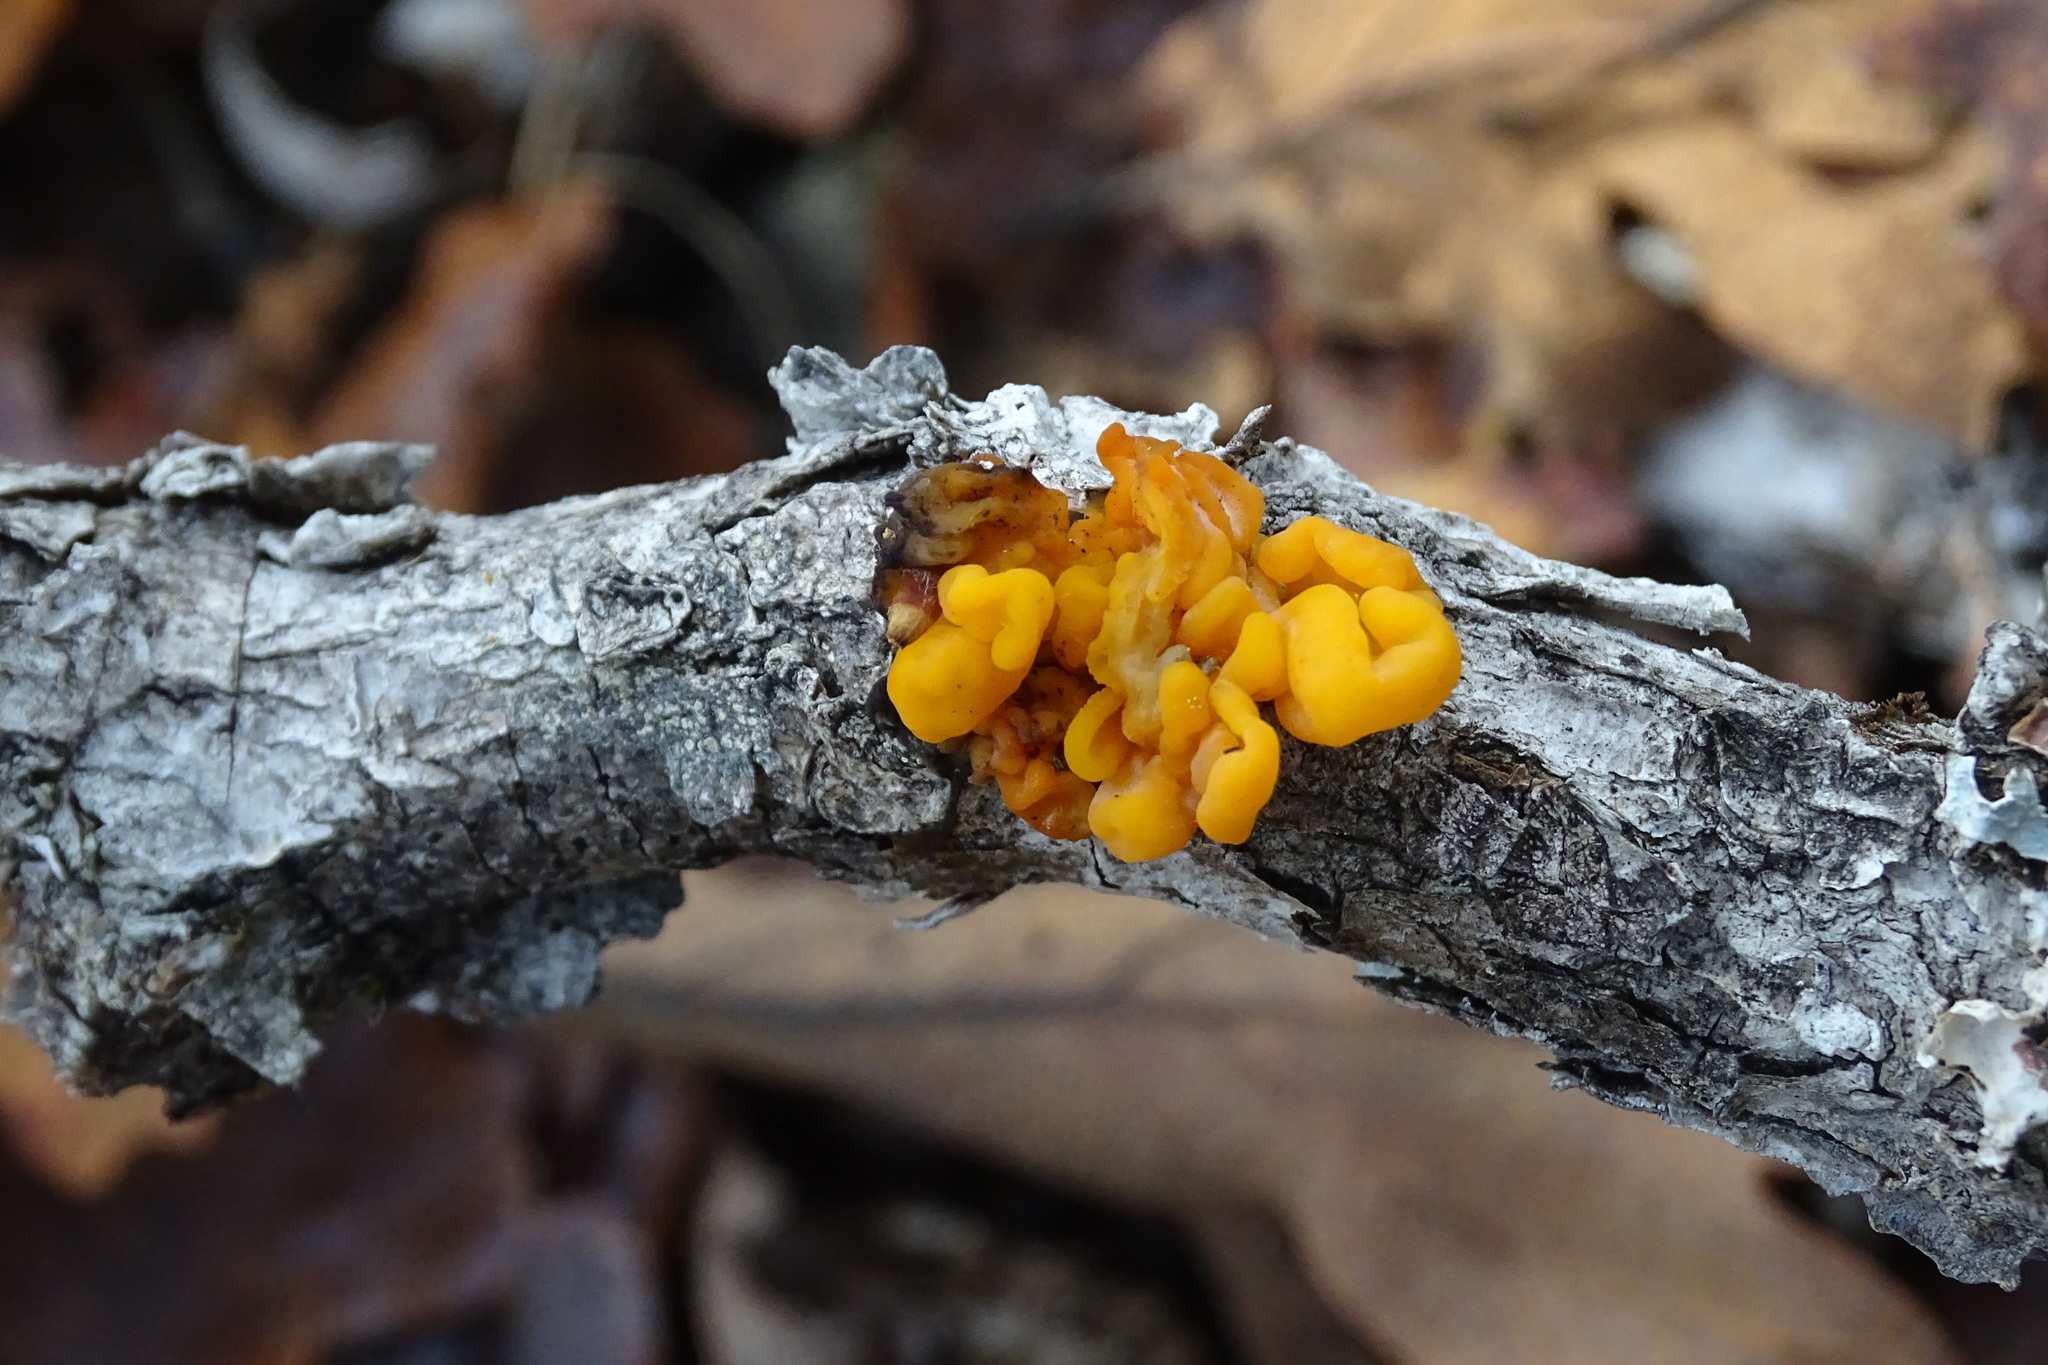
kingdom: Fungi
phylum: Basidiomycota
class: Tremellomycetes
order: Tremellales
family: Tremellaceae
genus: Tremella
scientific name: Tremella mesenterica
